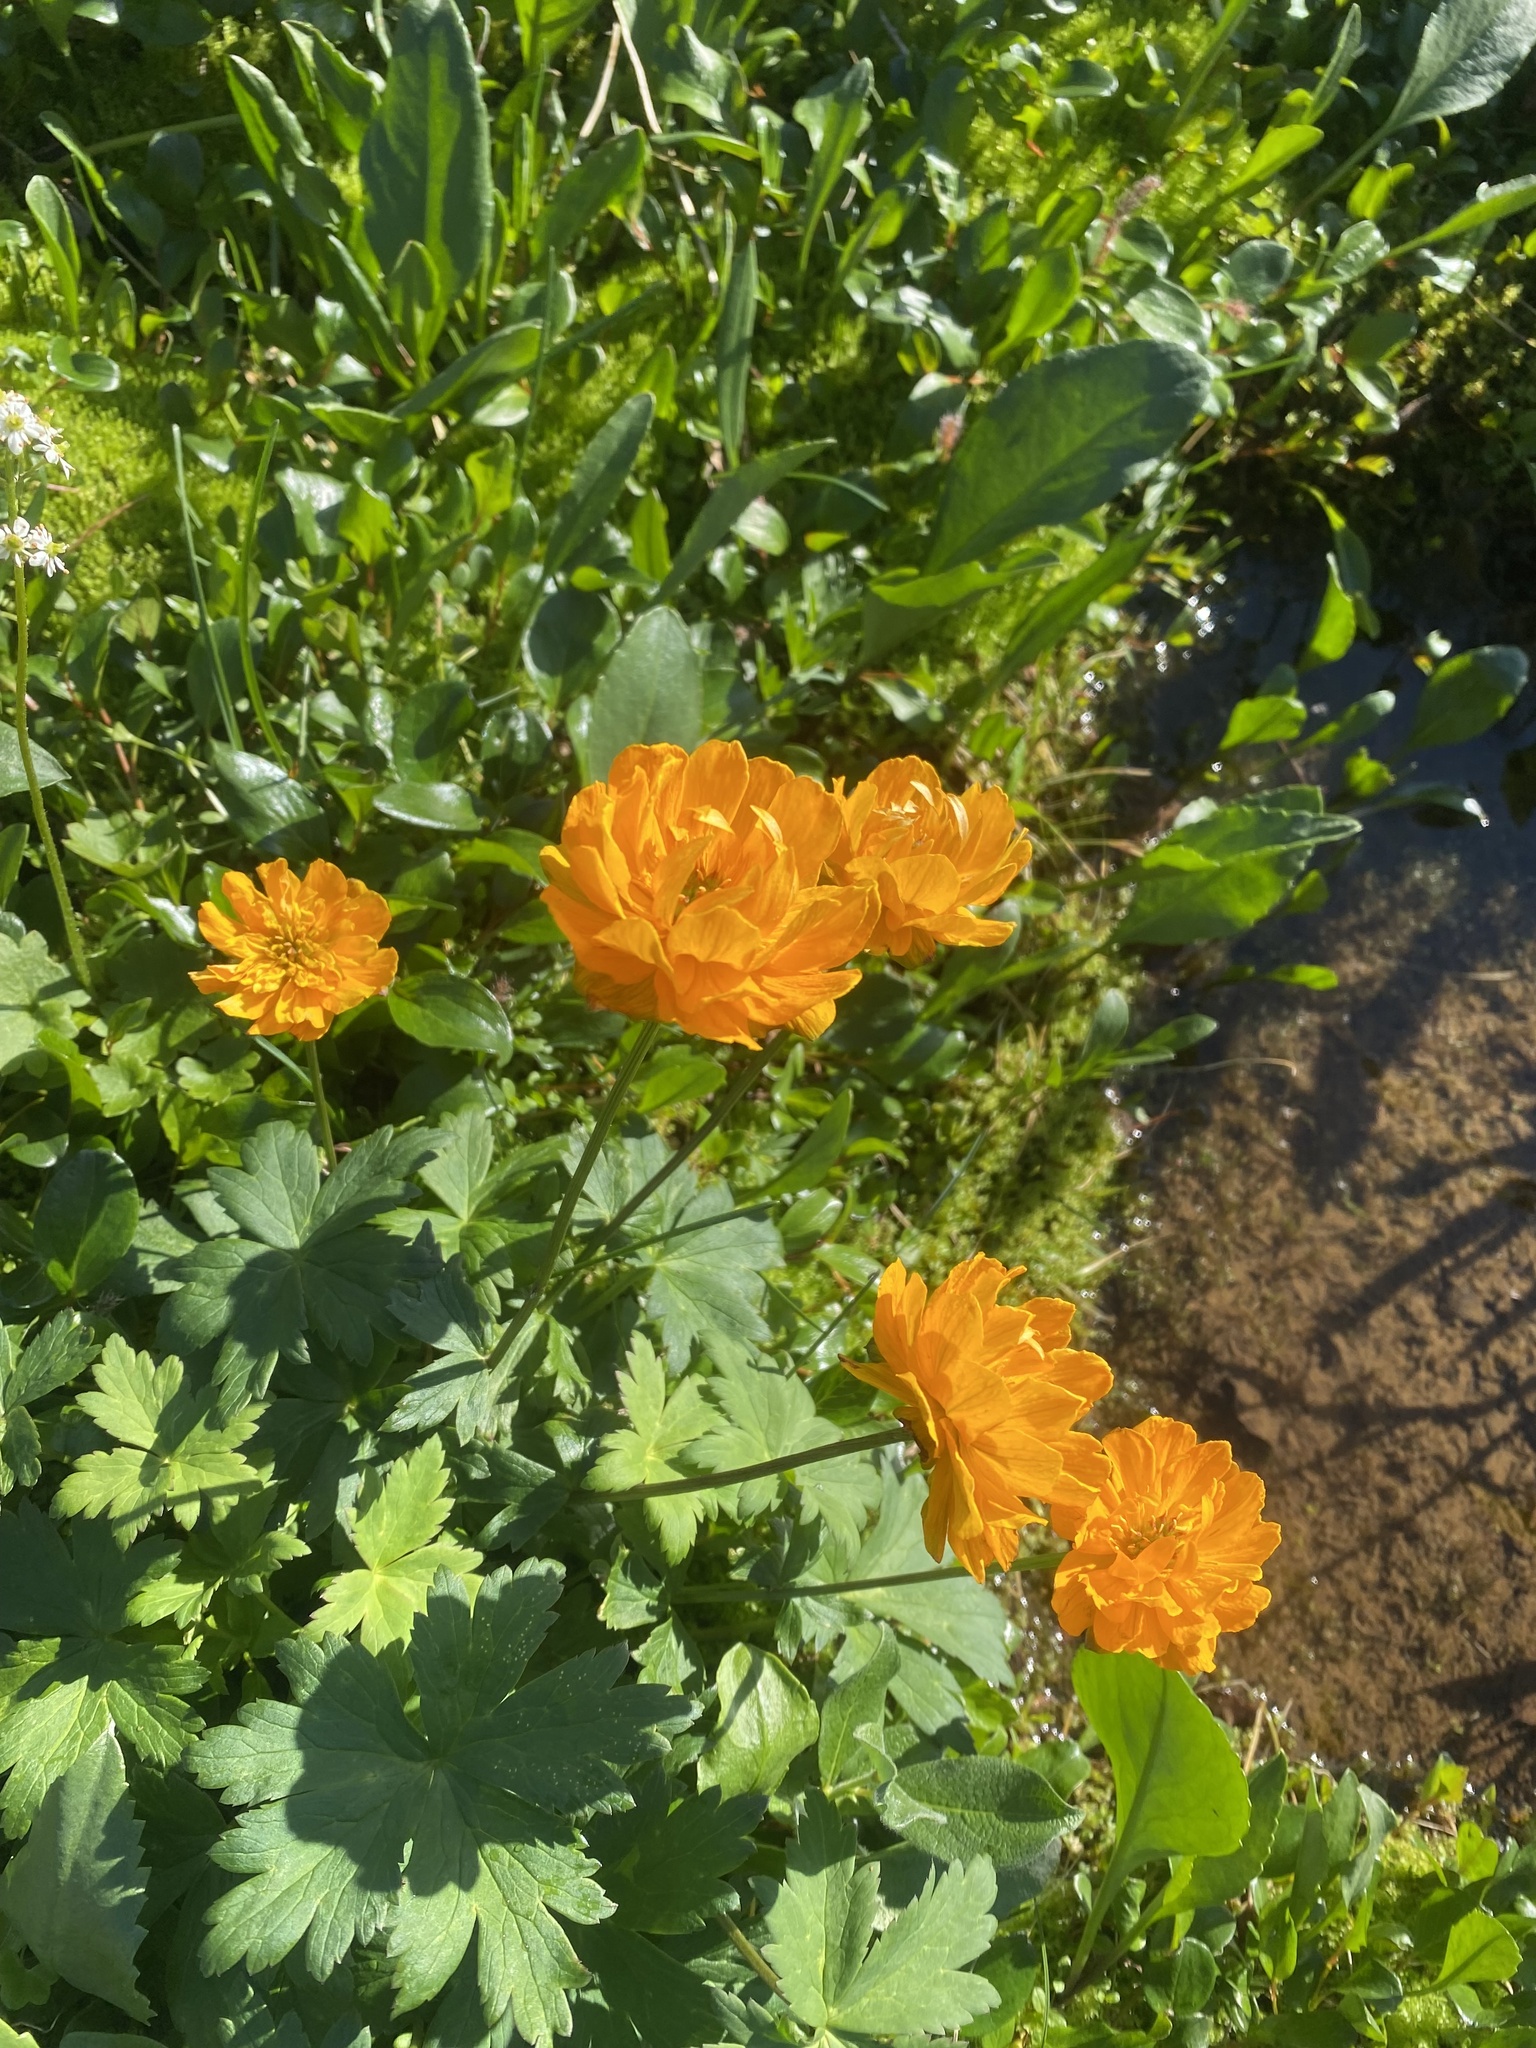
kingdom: Plantae
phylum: Tracheophyta
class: Magnoliopsida
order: Ranunculales
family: Ranunculaceae
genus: Trollius
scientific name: Trollius asiaticus
